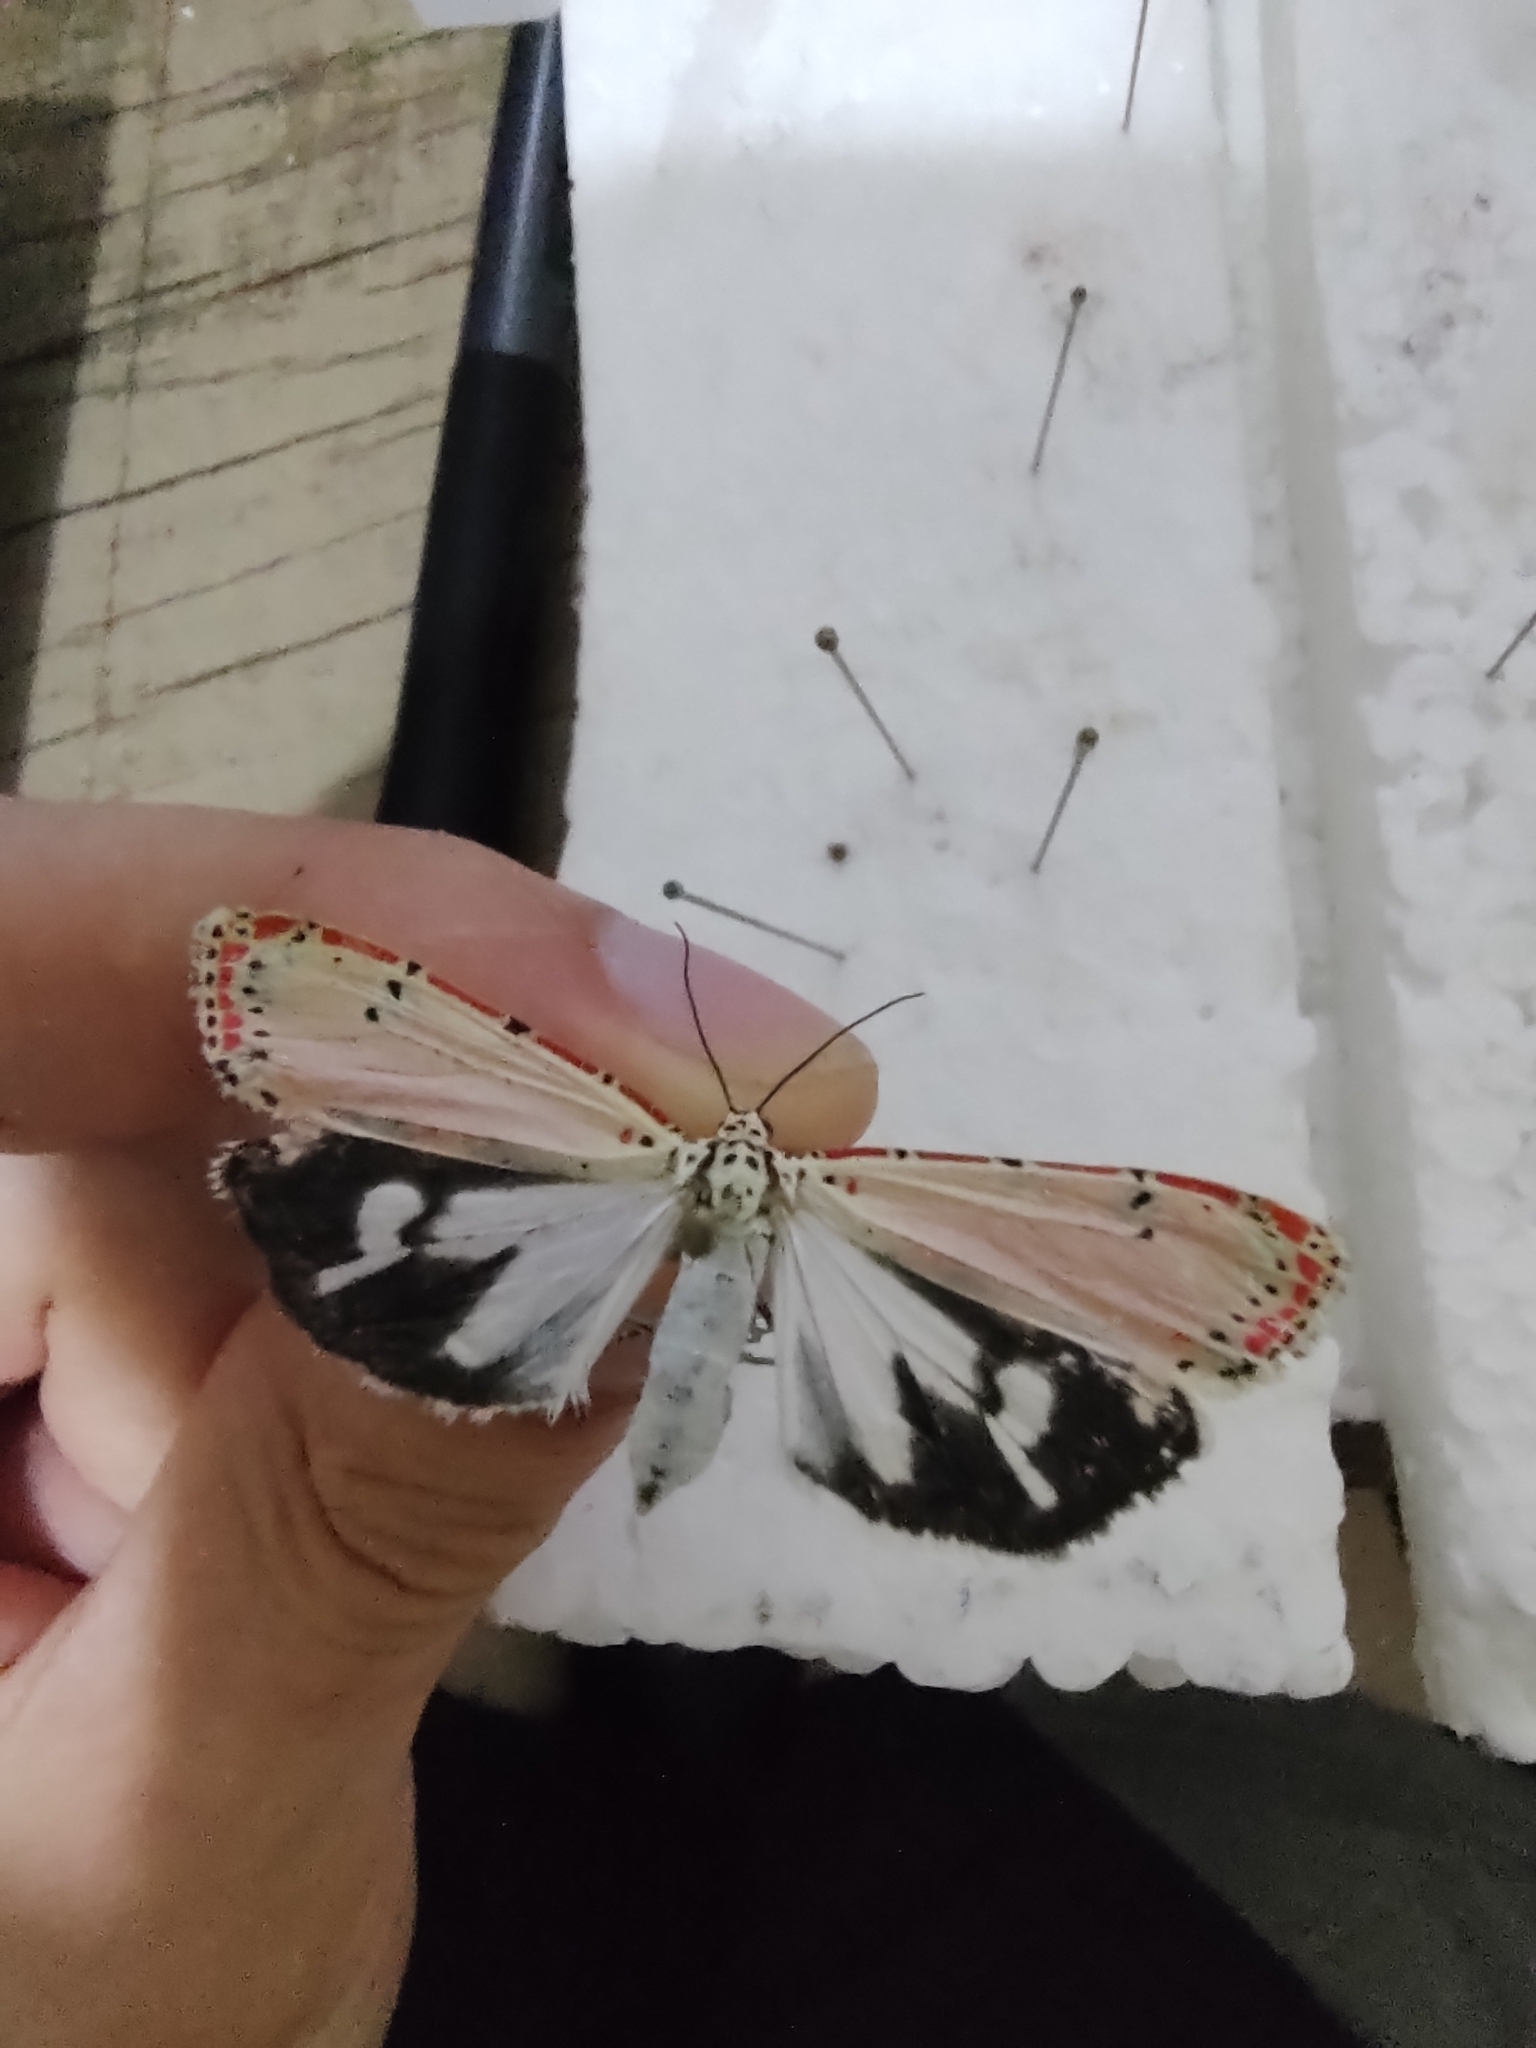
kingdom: Animalia
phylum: Arthropoda
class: Insecta
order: Lepidoptera
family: Erebidae
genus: Utetheisa
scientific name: Utetheisa ornatrix
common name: Beautiful utetheisa
